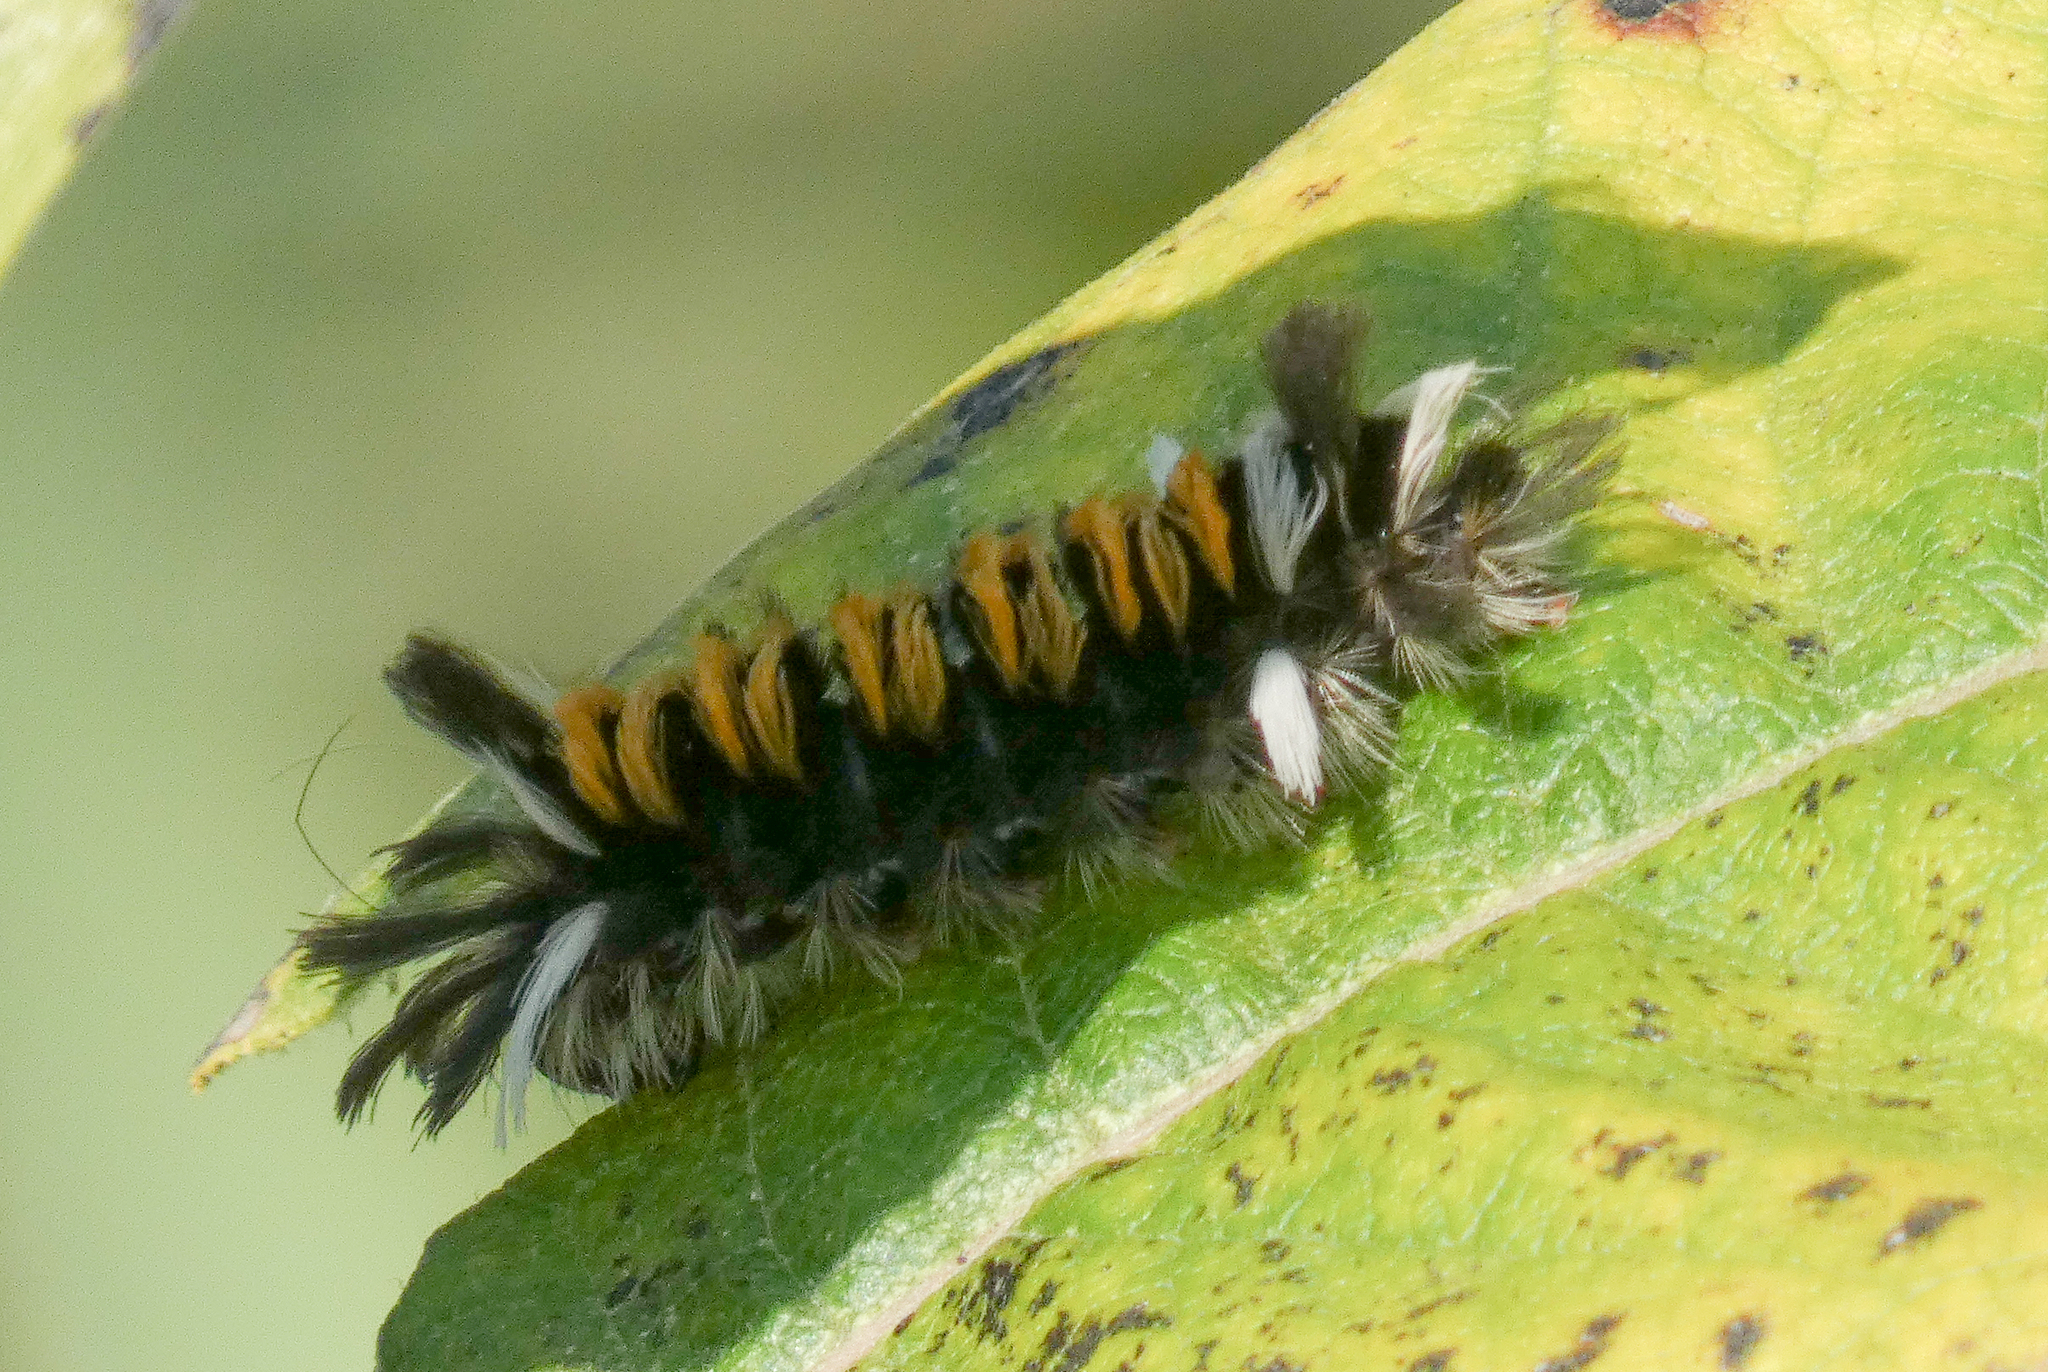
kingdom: Animalia
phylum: Arthropoda
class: Insecta
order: Lepidoptera
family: Erebidae
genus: Euchaetes
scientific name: Euchaetes egle
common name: Milkweed tussock moth
